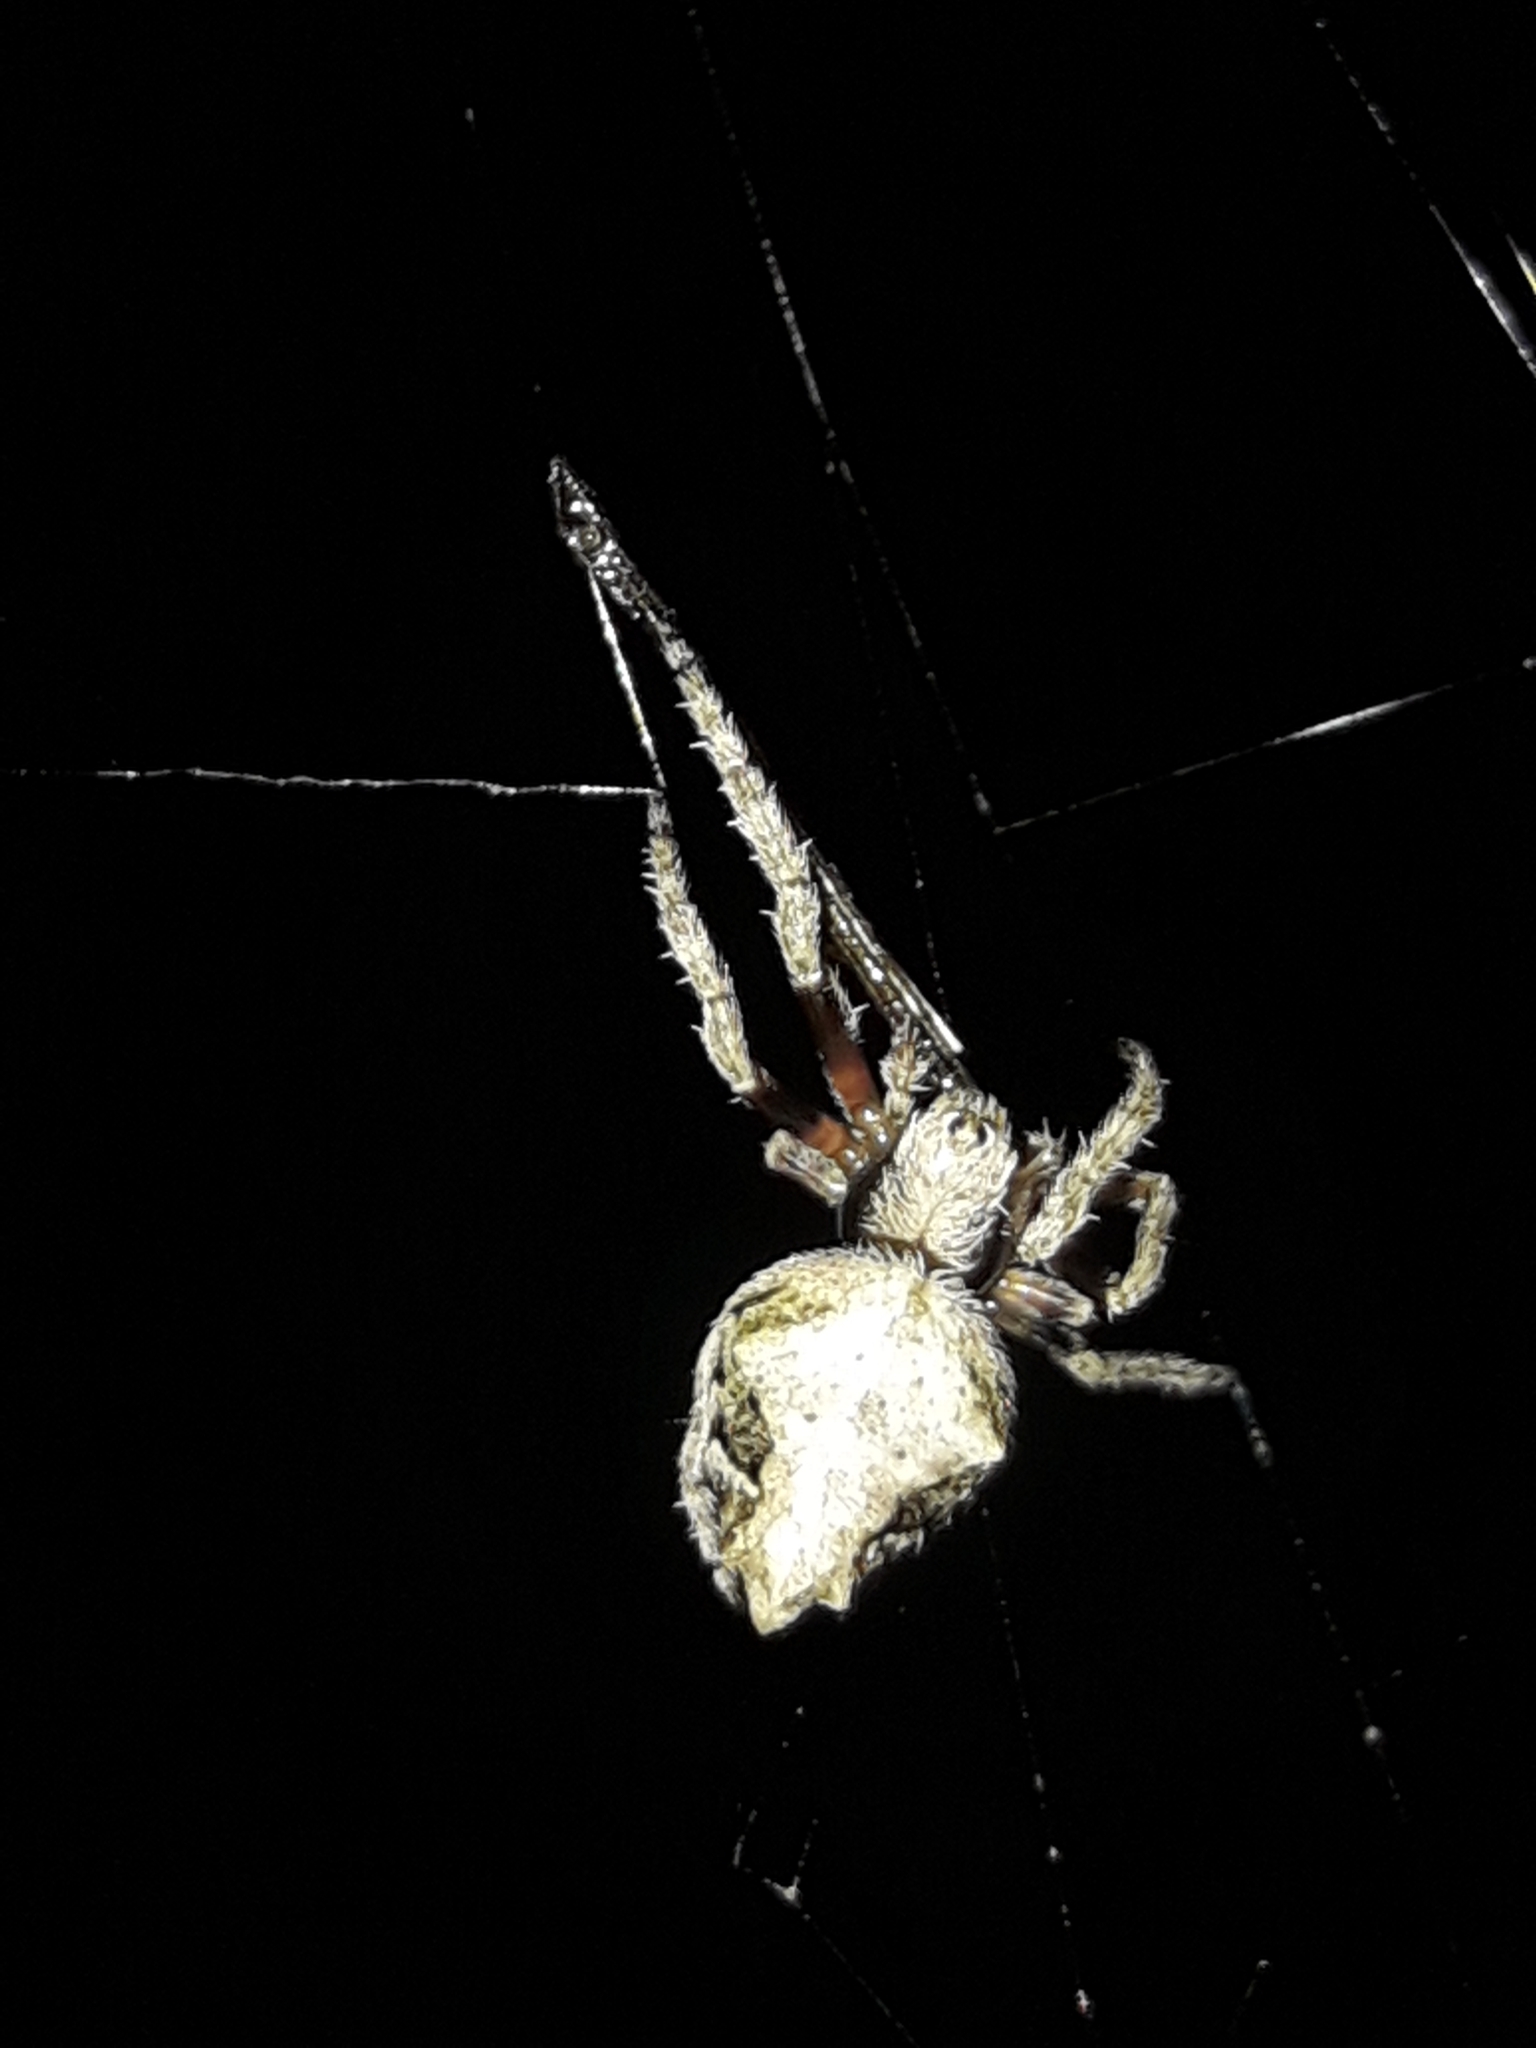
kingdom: Animalia
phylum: Arthropoda
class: Arachnida
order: Araneae
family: Araneidae
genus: Eriophora
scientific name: Eriophora pustulosa
